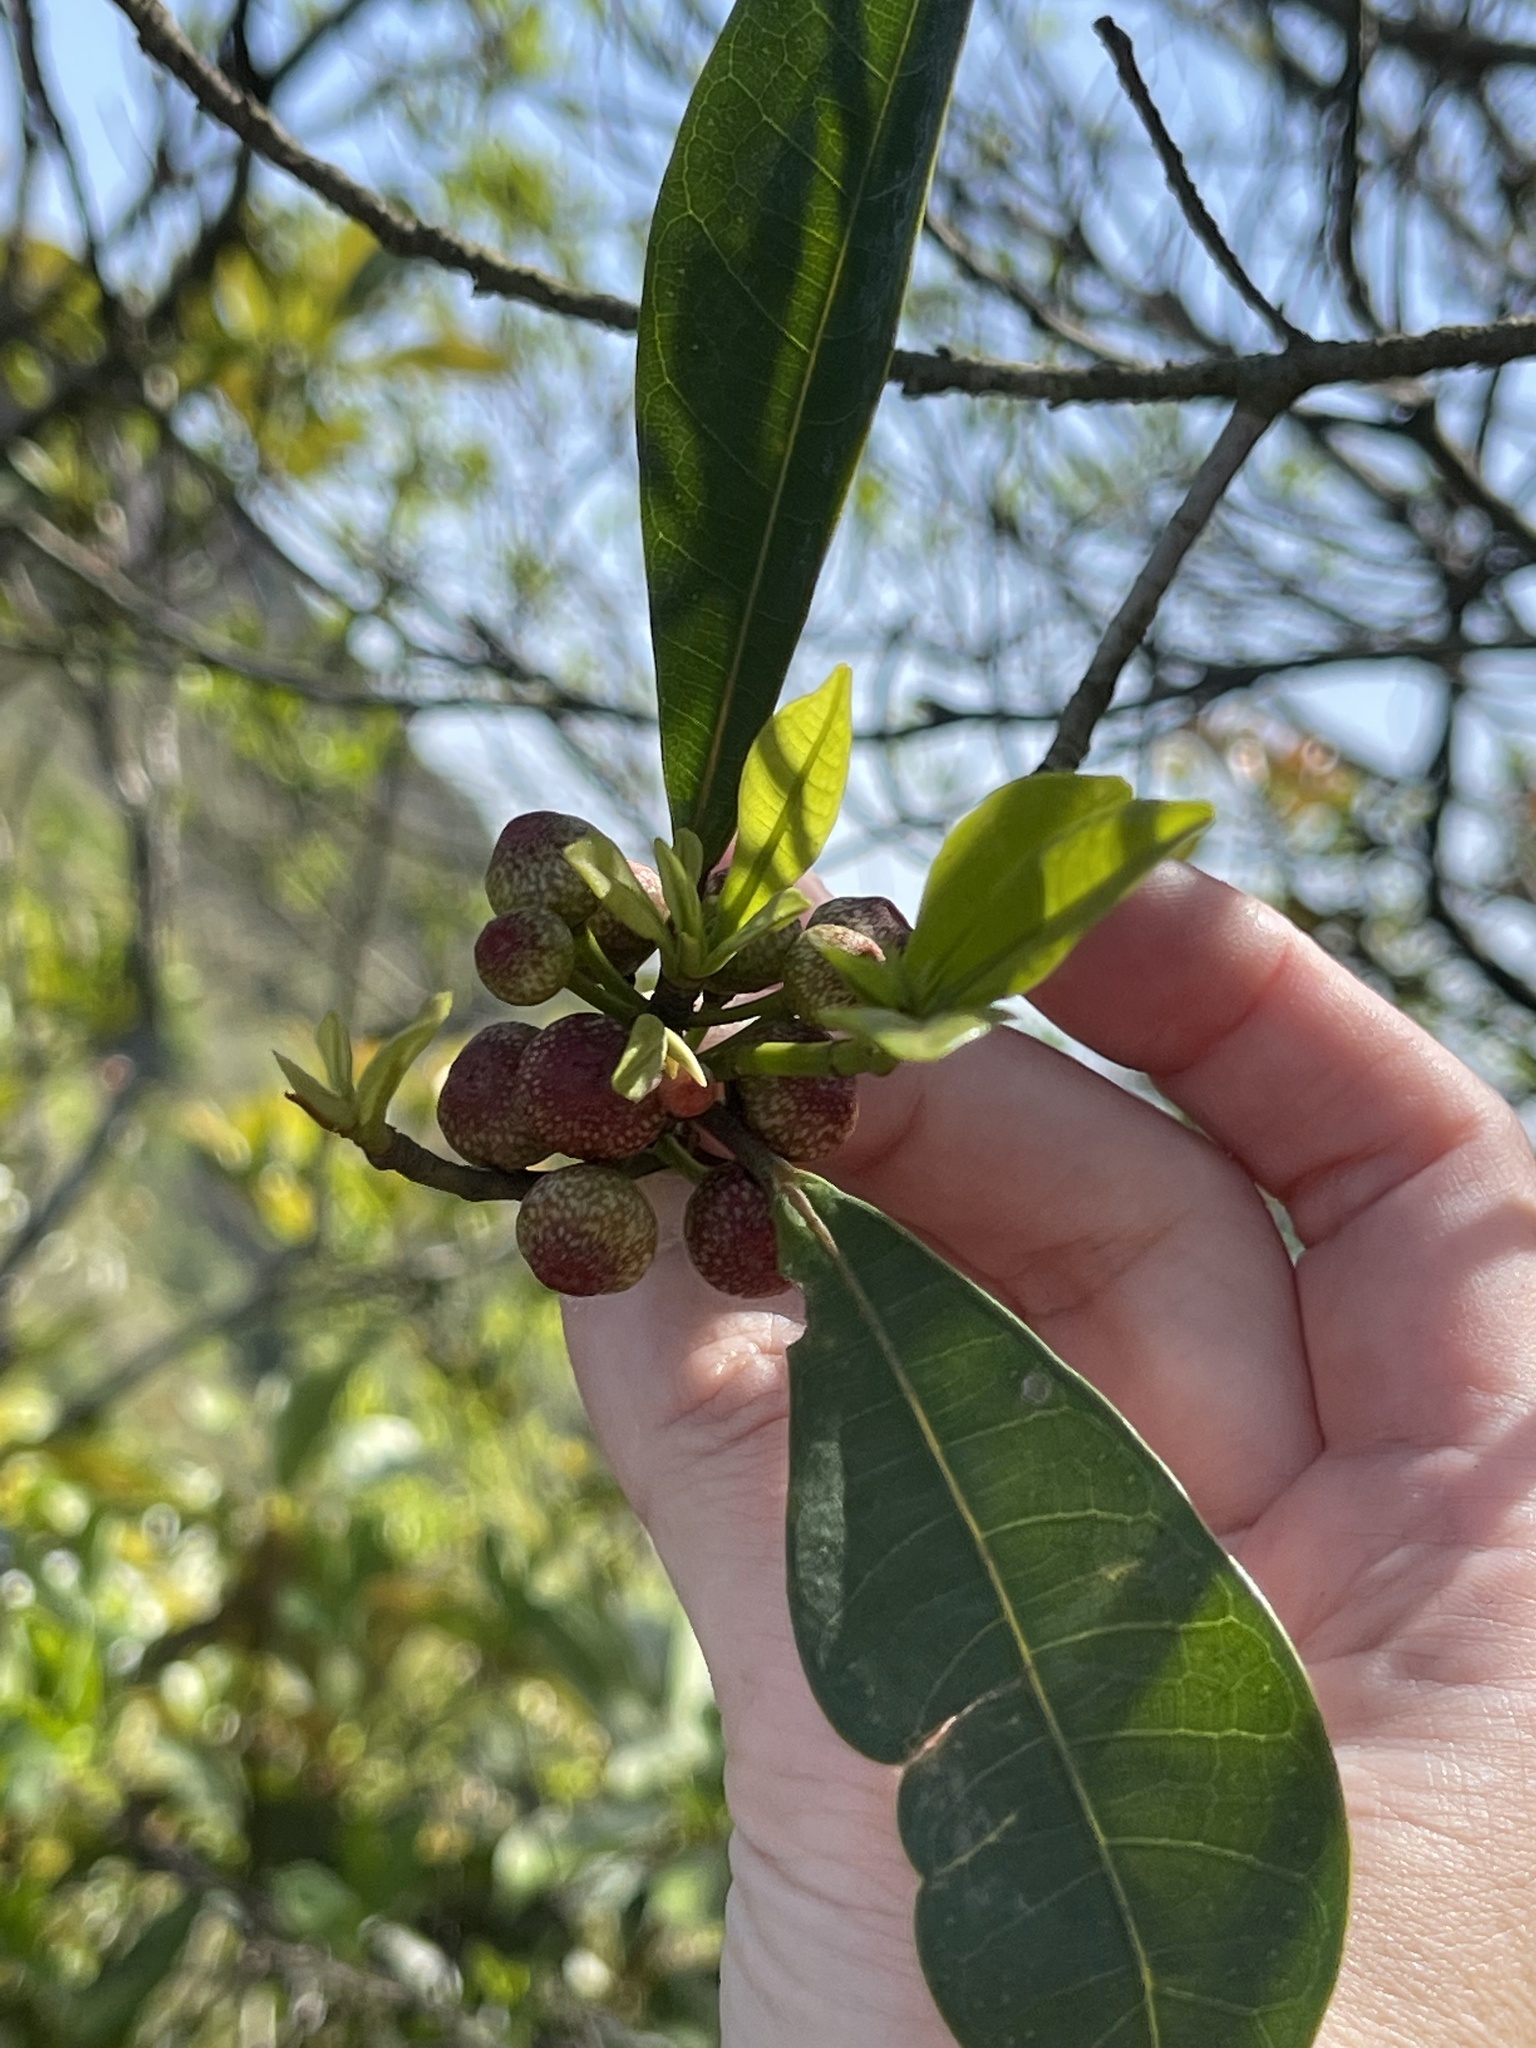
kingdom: Plantae
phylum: Tracheophyta
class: Magnoliopsida
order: Rosales
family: Moraceae
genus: Ficus
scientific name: Ficus variolosa
